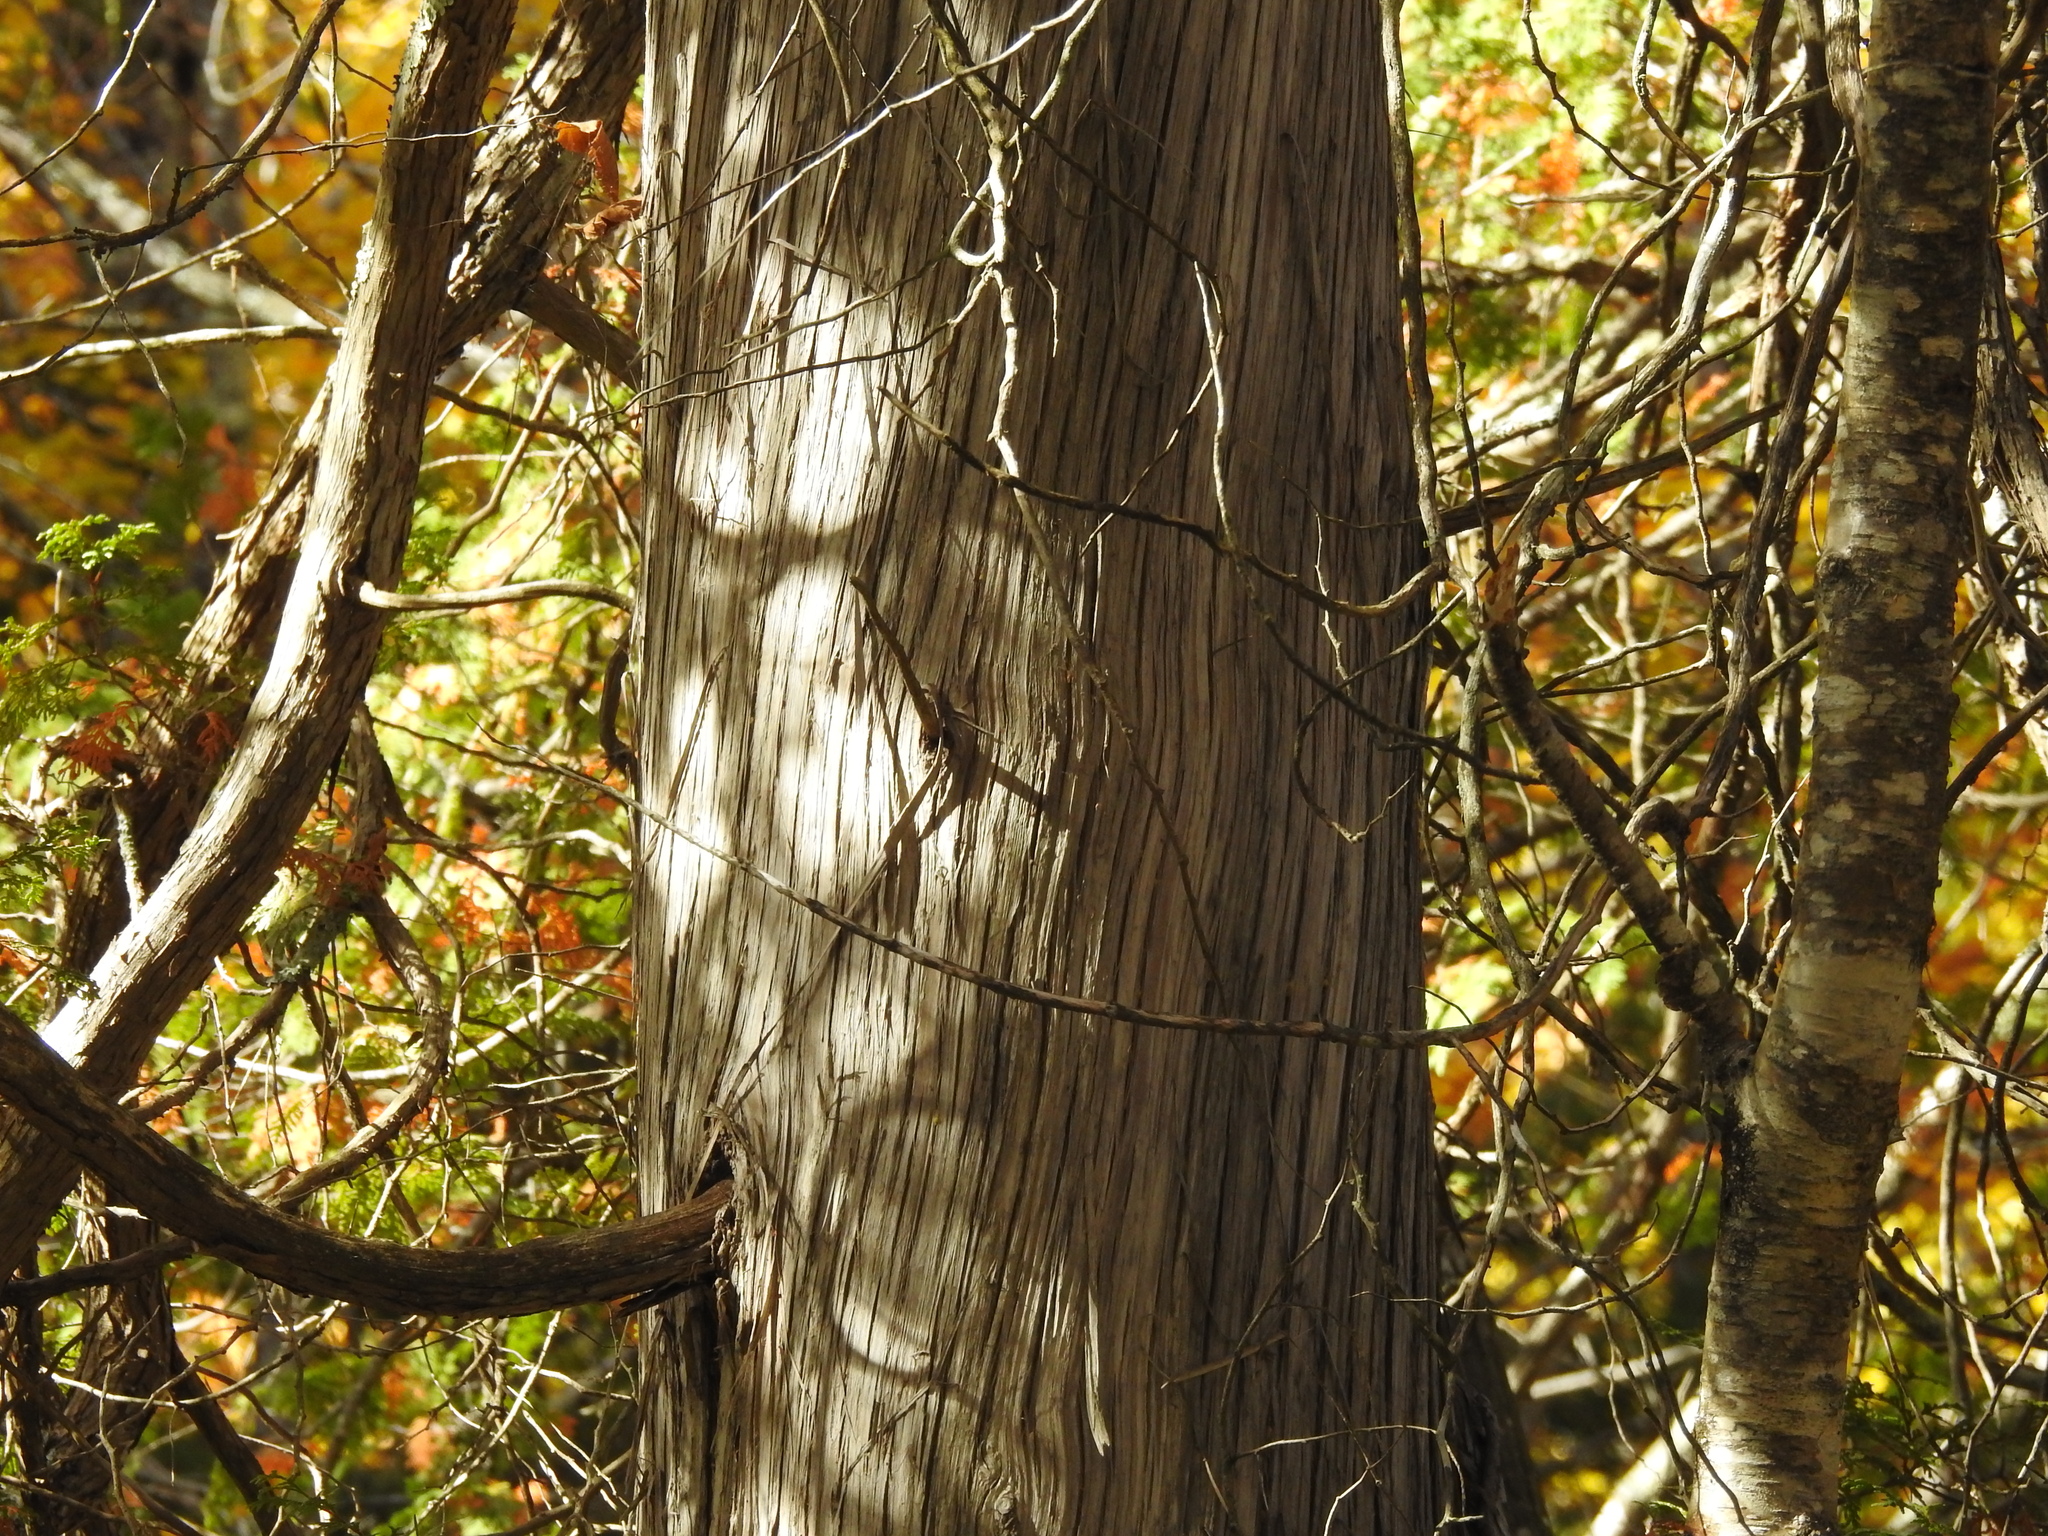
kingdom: Plantae
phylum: Tracheophyta
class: Pinopsida
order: Pinales
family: Cupressaceae
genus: Thuja
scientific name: Thuja occidentalis
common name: Northern white-cedar
